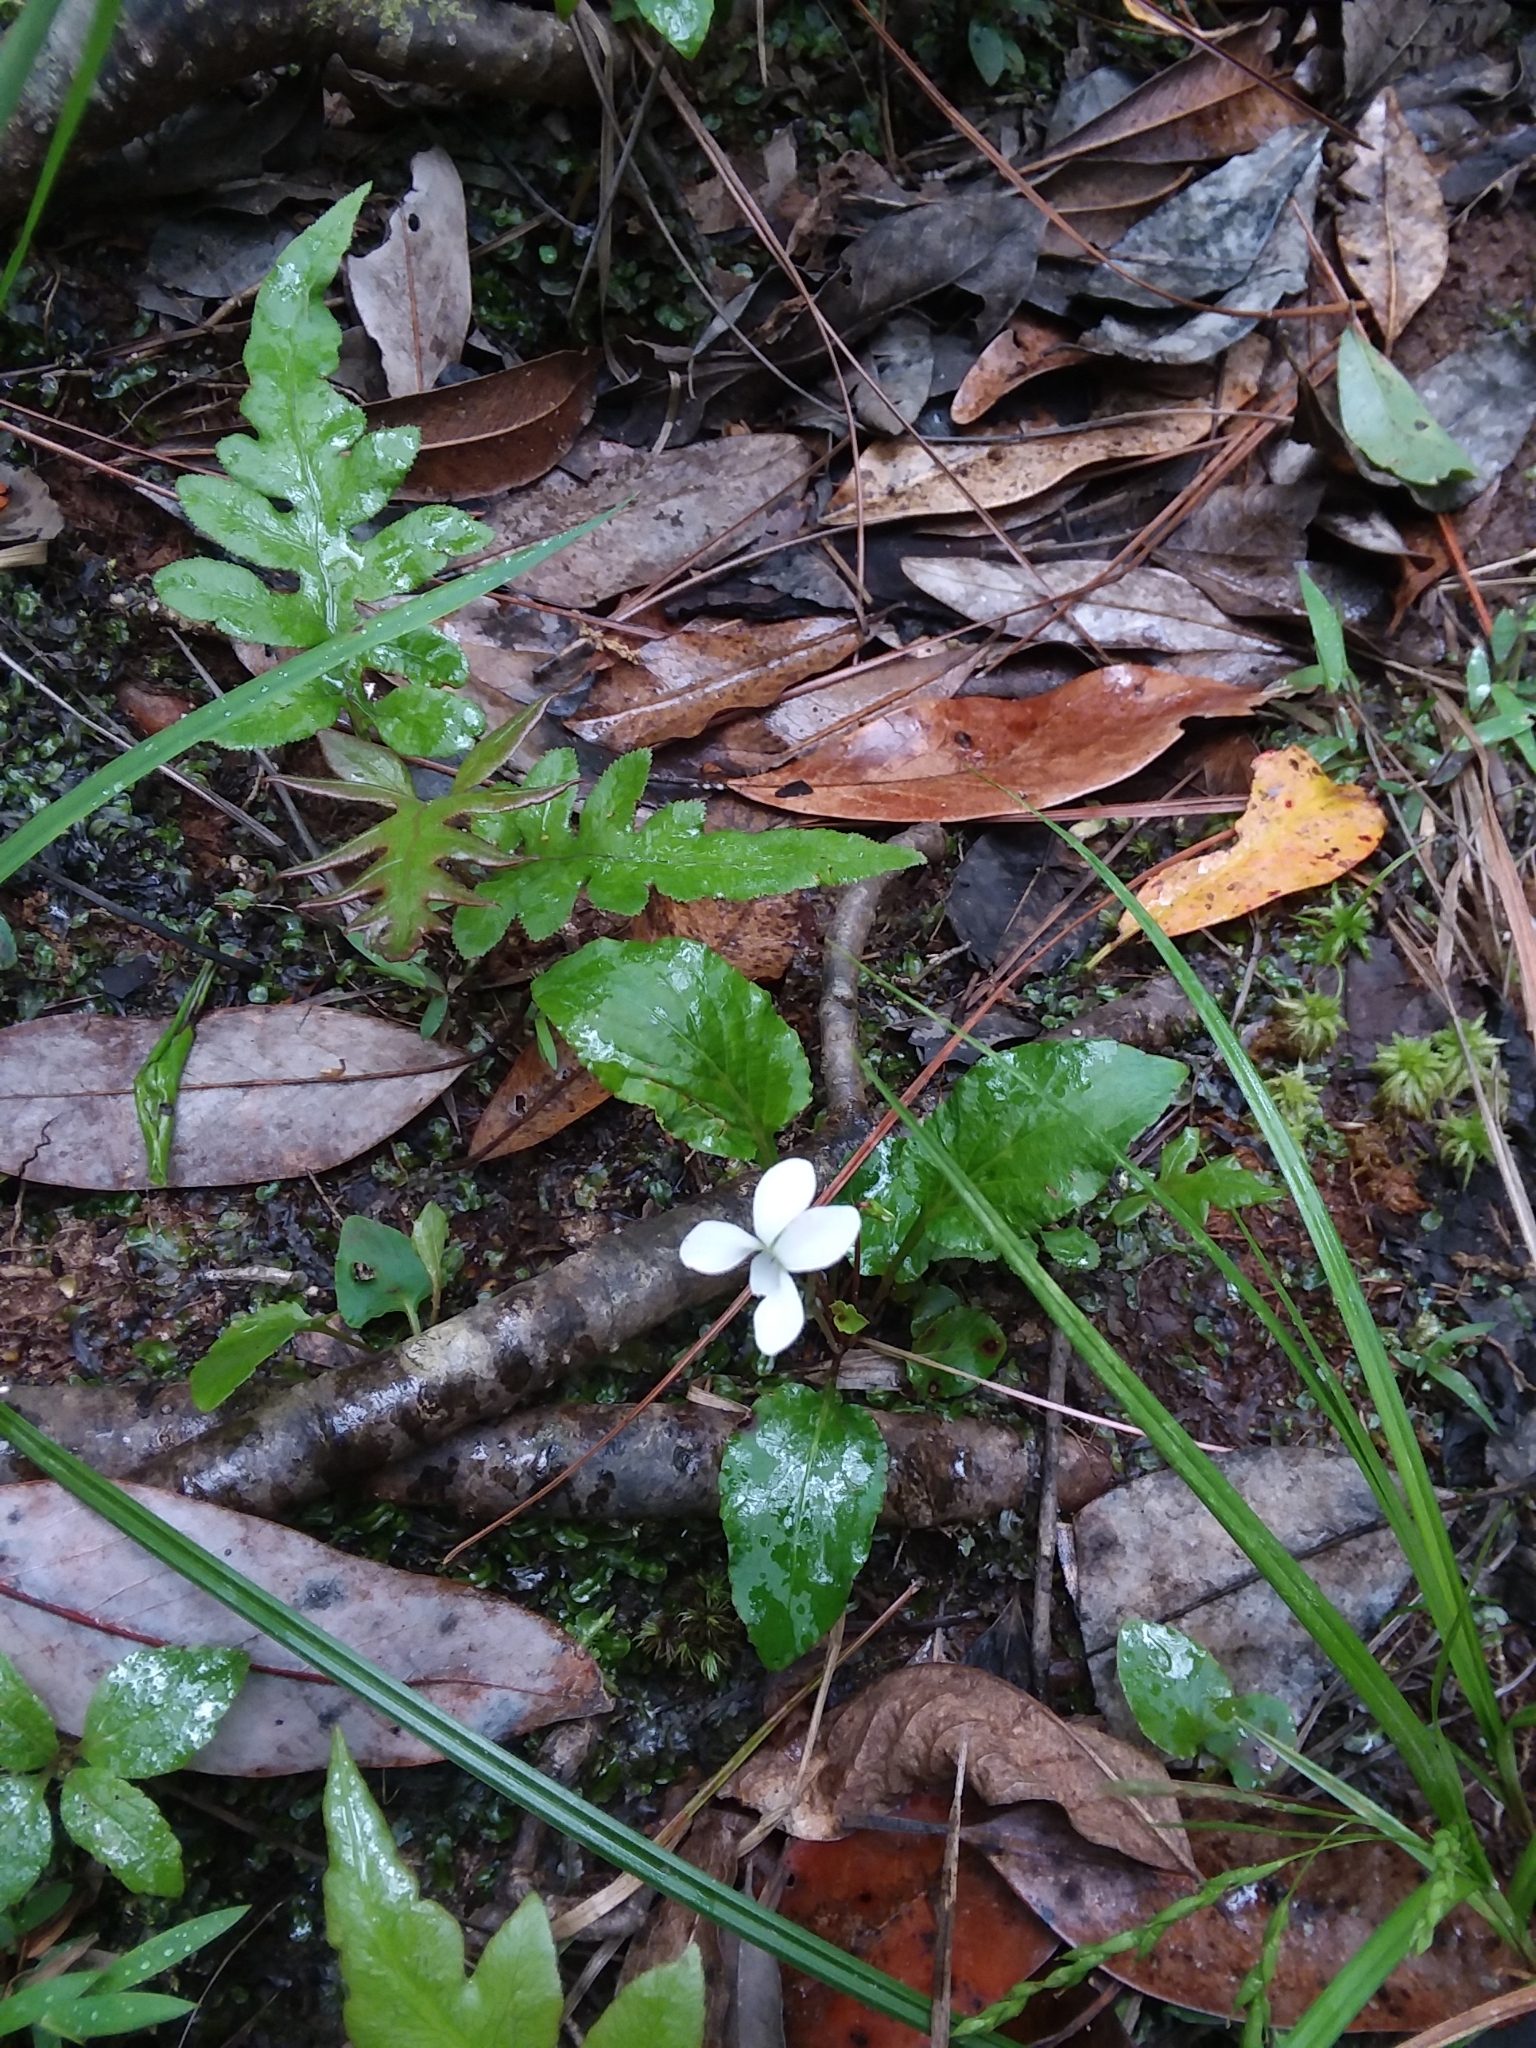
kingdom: Plantae
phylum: Tracheophyta
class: Magnoliopsida
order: Malpighiales
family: Violaceae
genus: Viola
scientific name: Viola primulifolia
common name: Primrose-leaf violet
